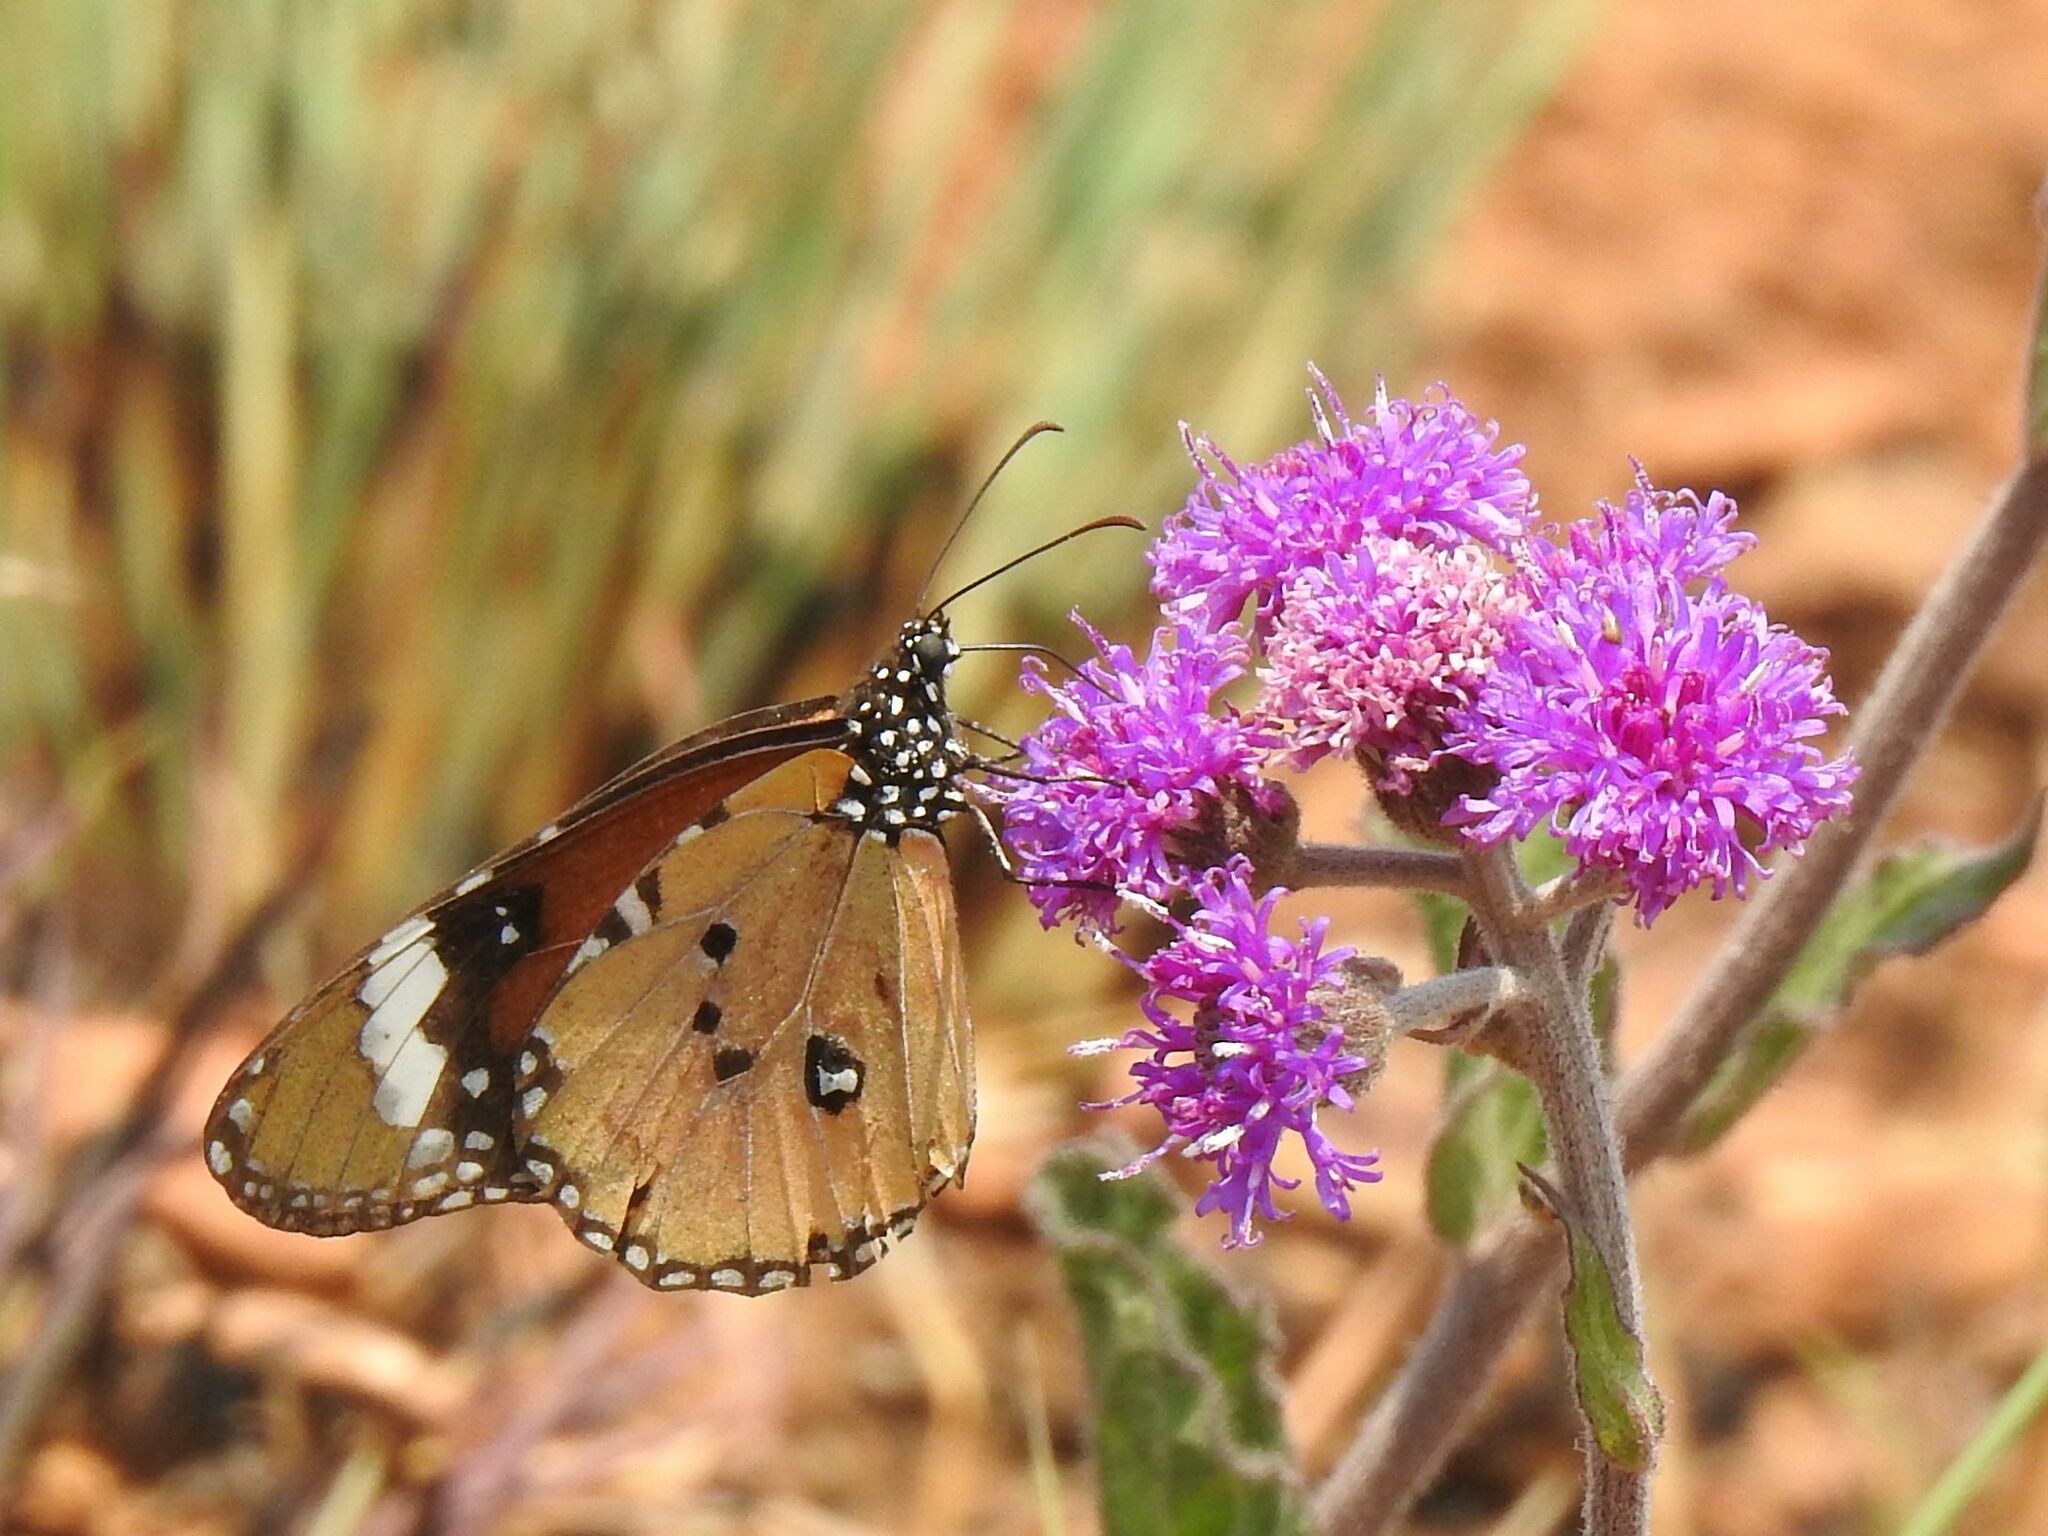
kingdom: Animalia
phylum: Arthropoda
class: Insecta
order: Lepidoptera
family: Nymphalidae
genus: Danaus
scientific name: Danaus chrysippus
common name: Plain tiger
